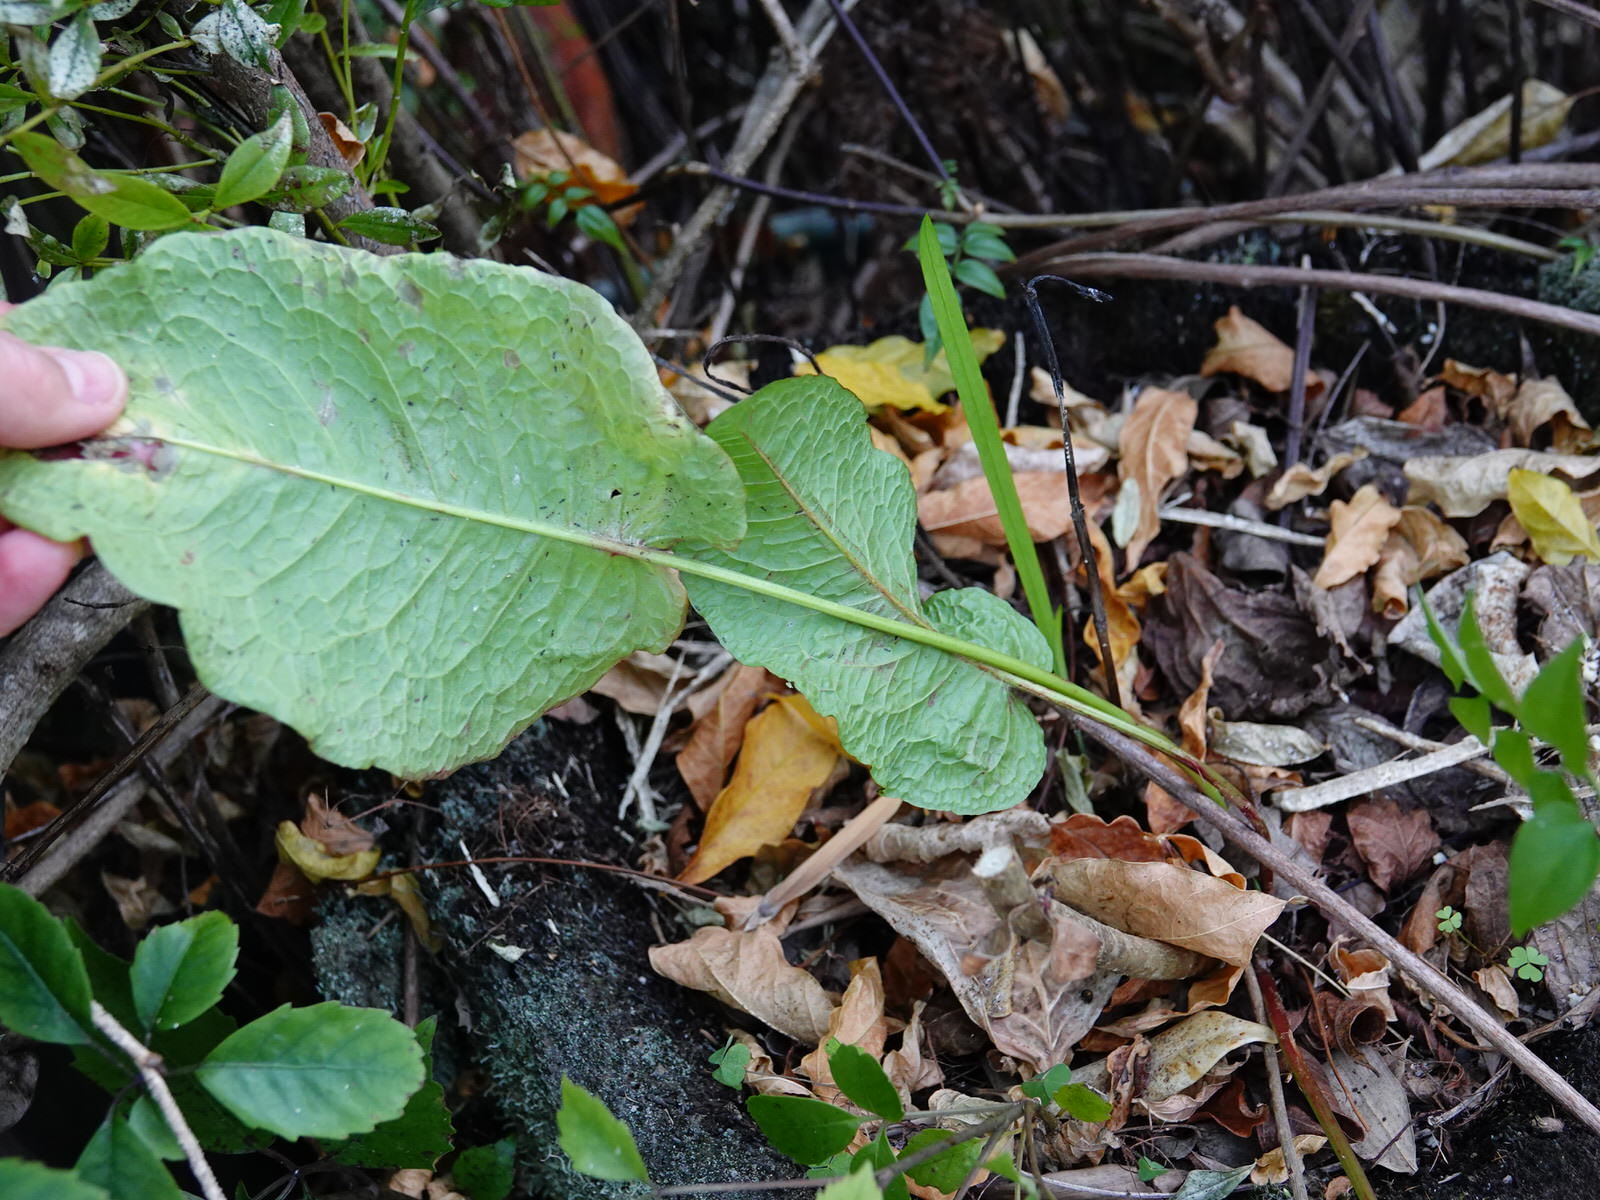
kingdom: Plantae
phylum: Tracheophyta
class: Magnoliopsida
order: Caryophyllales
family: Polygonaceae
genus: Rumex
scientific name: Rumex obtusifolius
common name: Bitter dock
